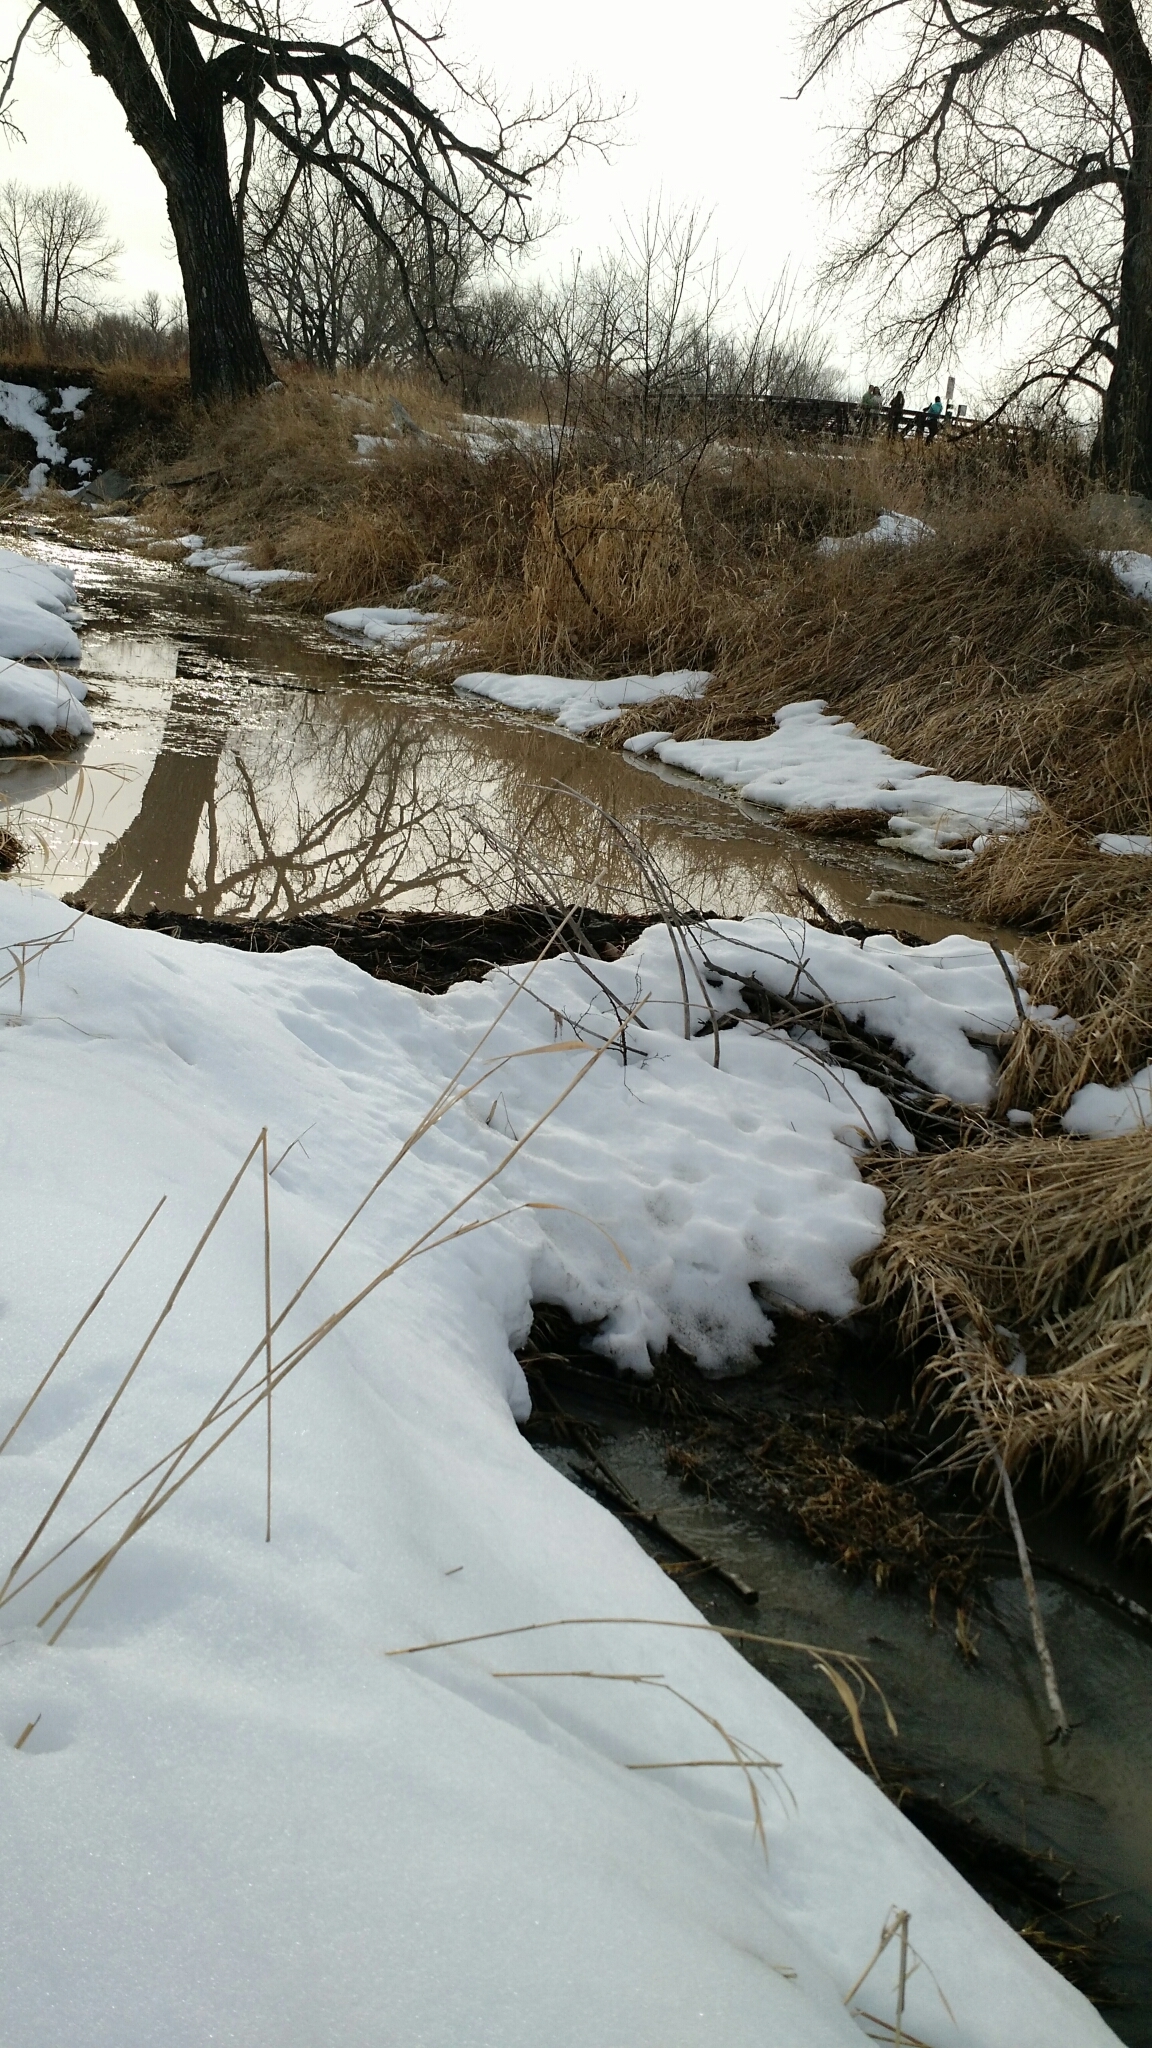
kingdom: Animalia
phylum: Chordata
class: Mammalia
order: Rodentia
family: Castoridae
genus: Castor
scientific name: Castor canadensis
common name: American beaver
